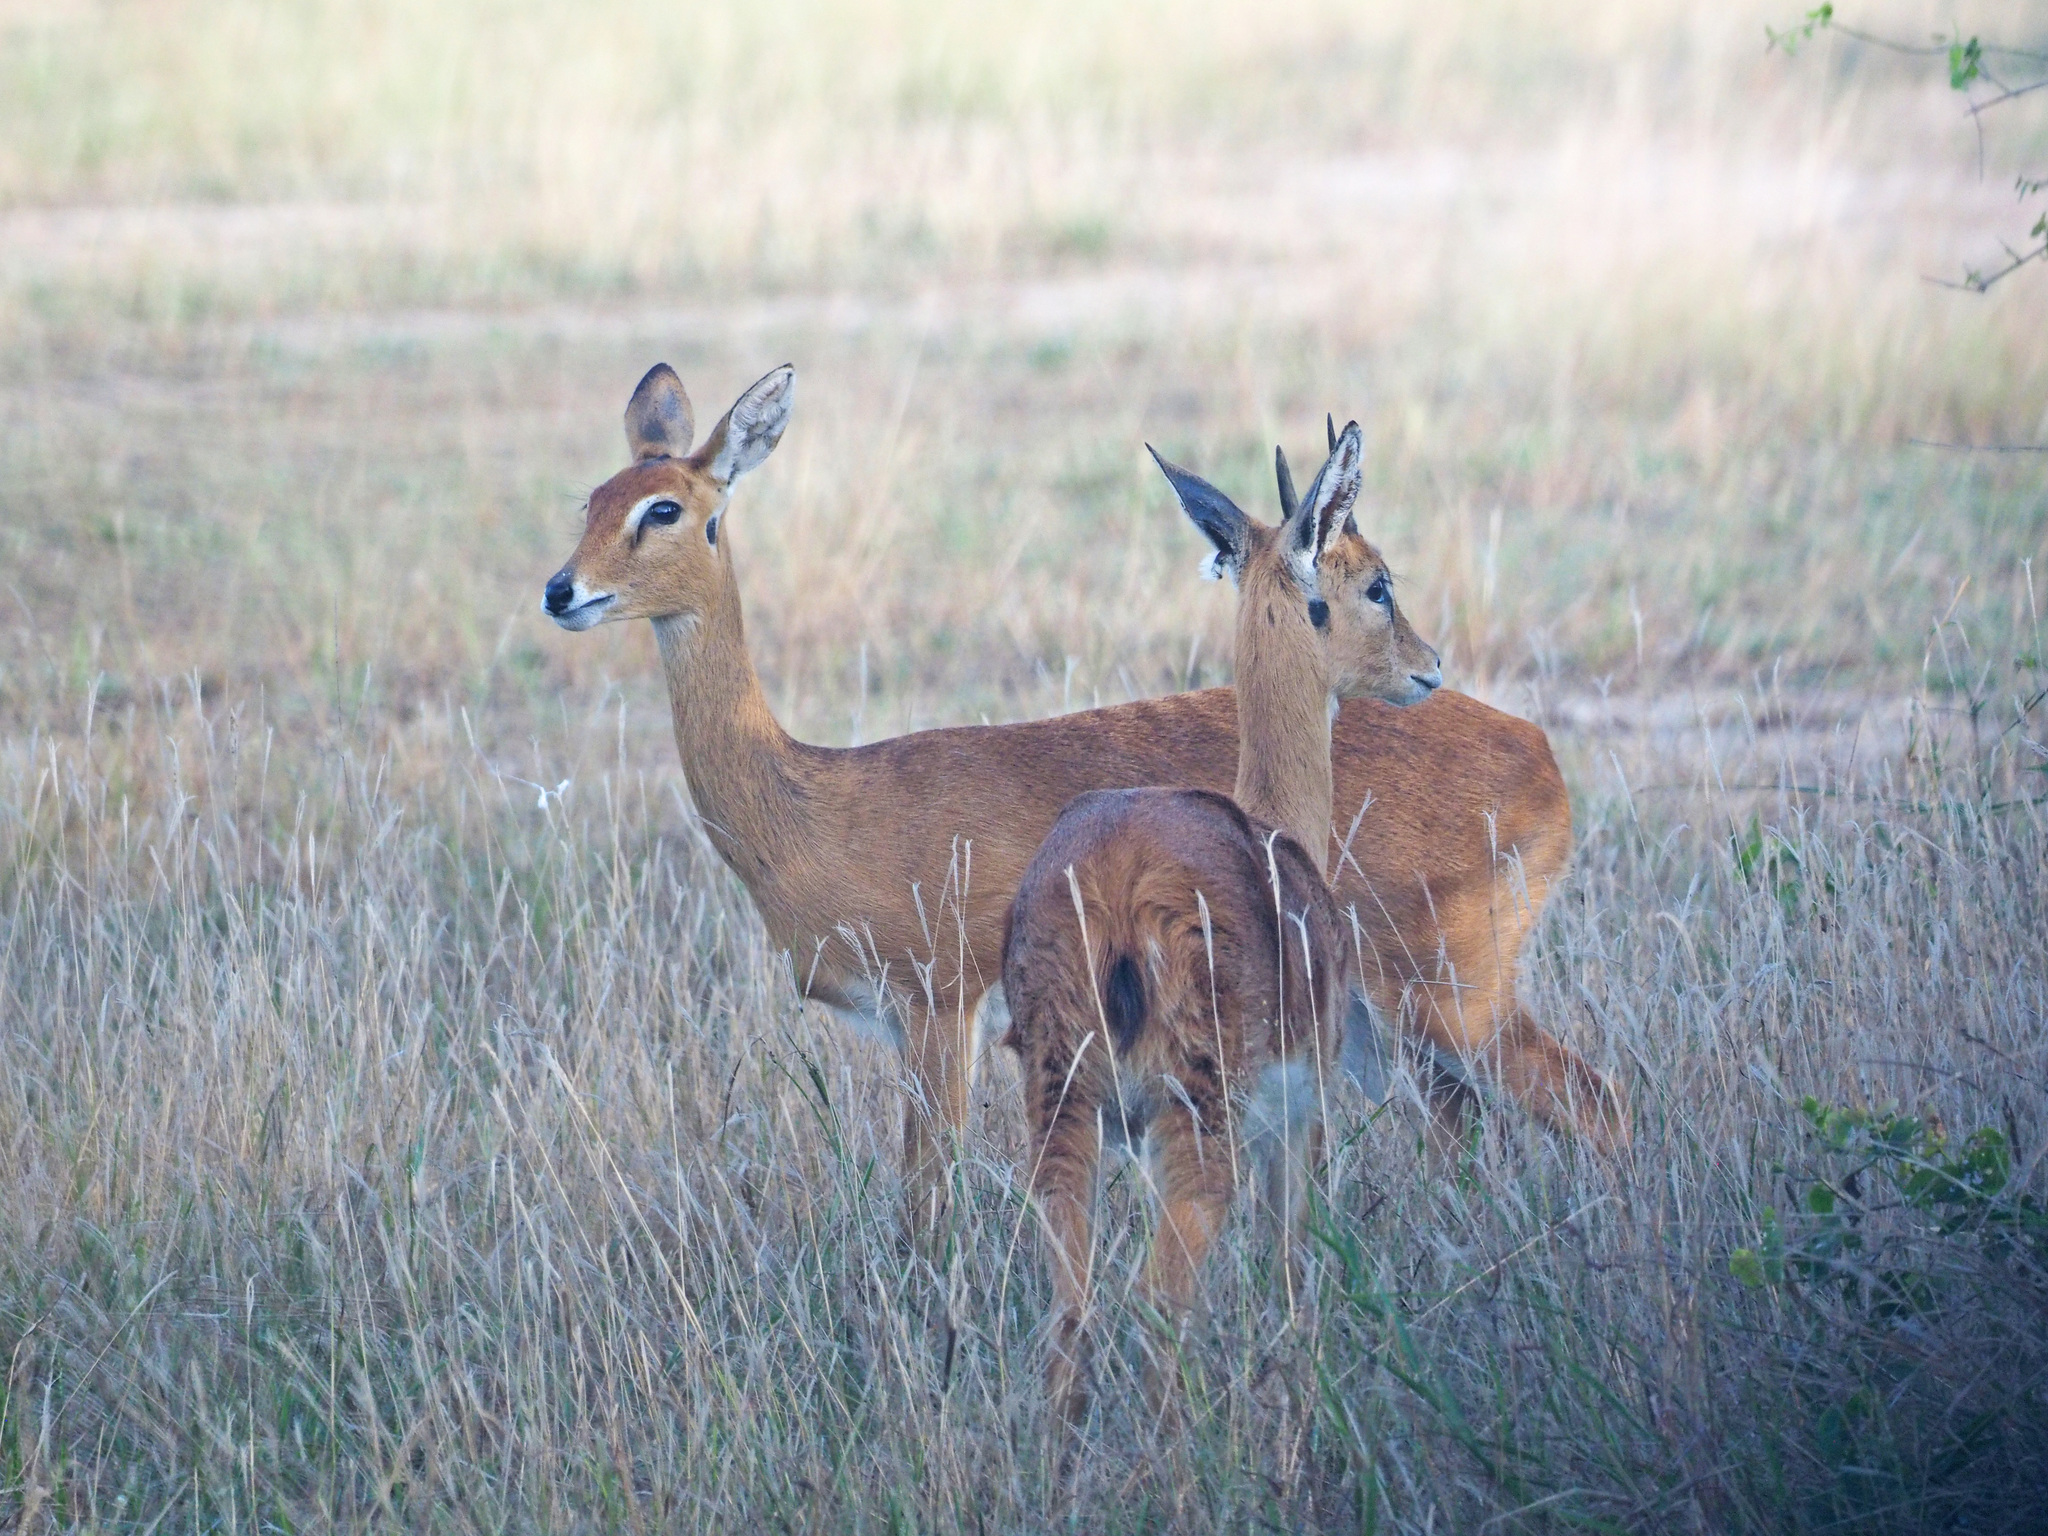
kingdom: Animalia
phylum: Chordata
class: Mammalia
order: Artiodactyla
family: Bovidae
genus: Ourebia
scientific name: Ourebia ourebi
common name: Oribi
